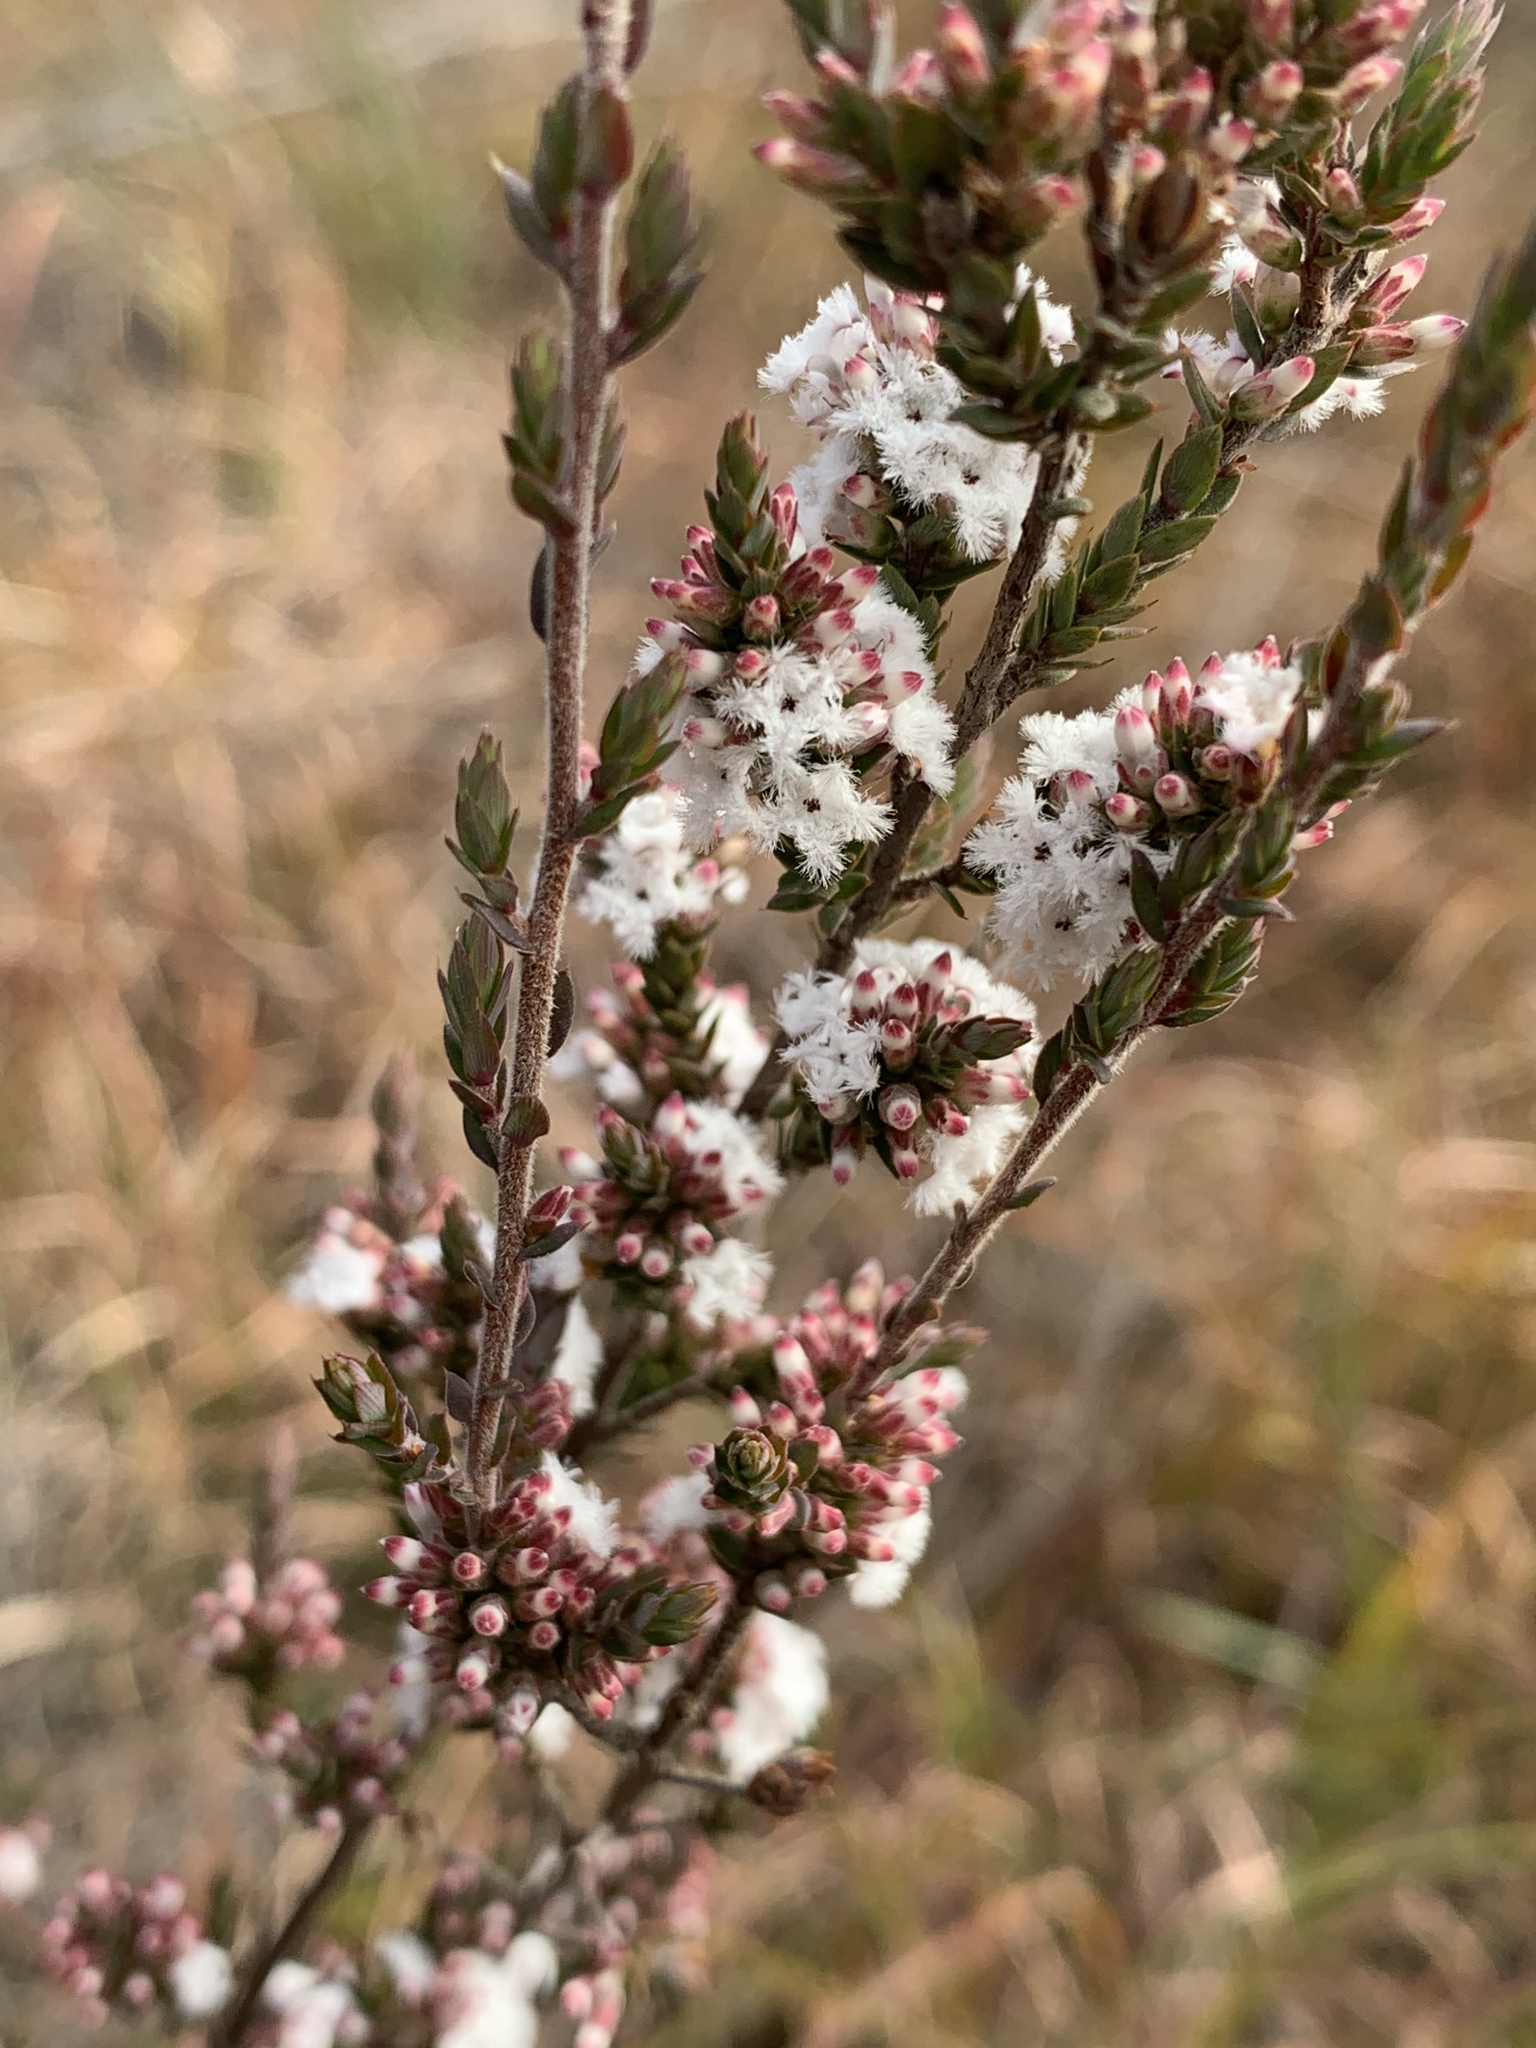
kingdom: Plantae
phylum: Tracheophyta
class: Magnoliopsida
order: Ericales
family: Ericaceae
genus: Styphelia
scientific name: Styphelia attenuata
